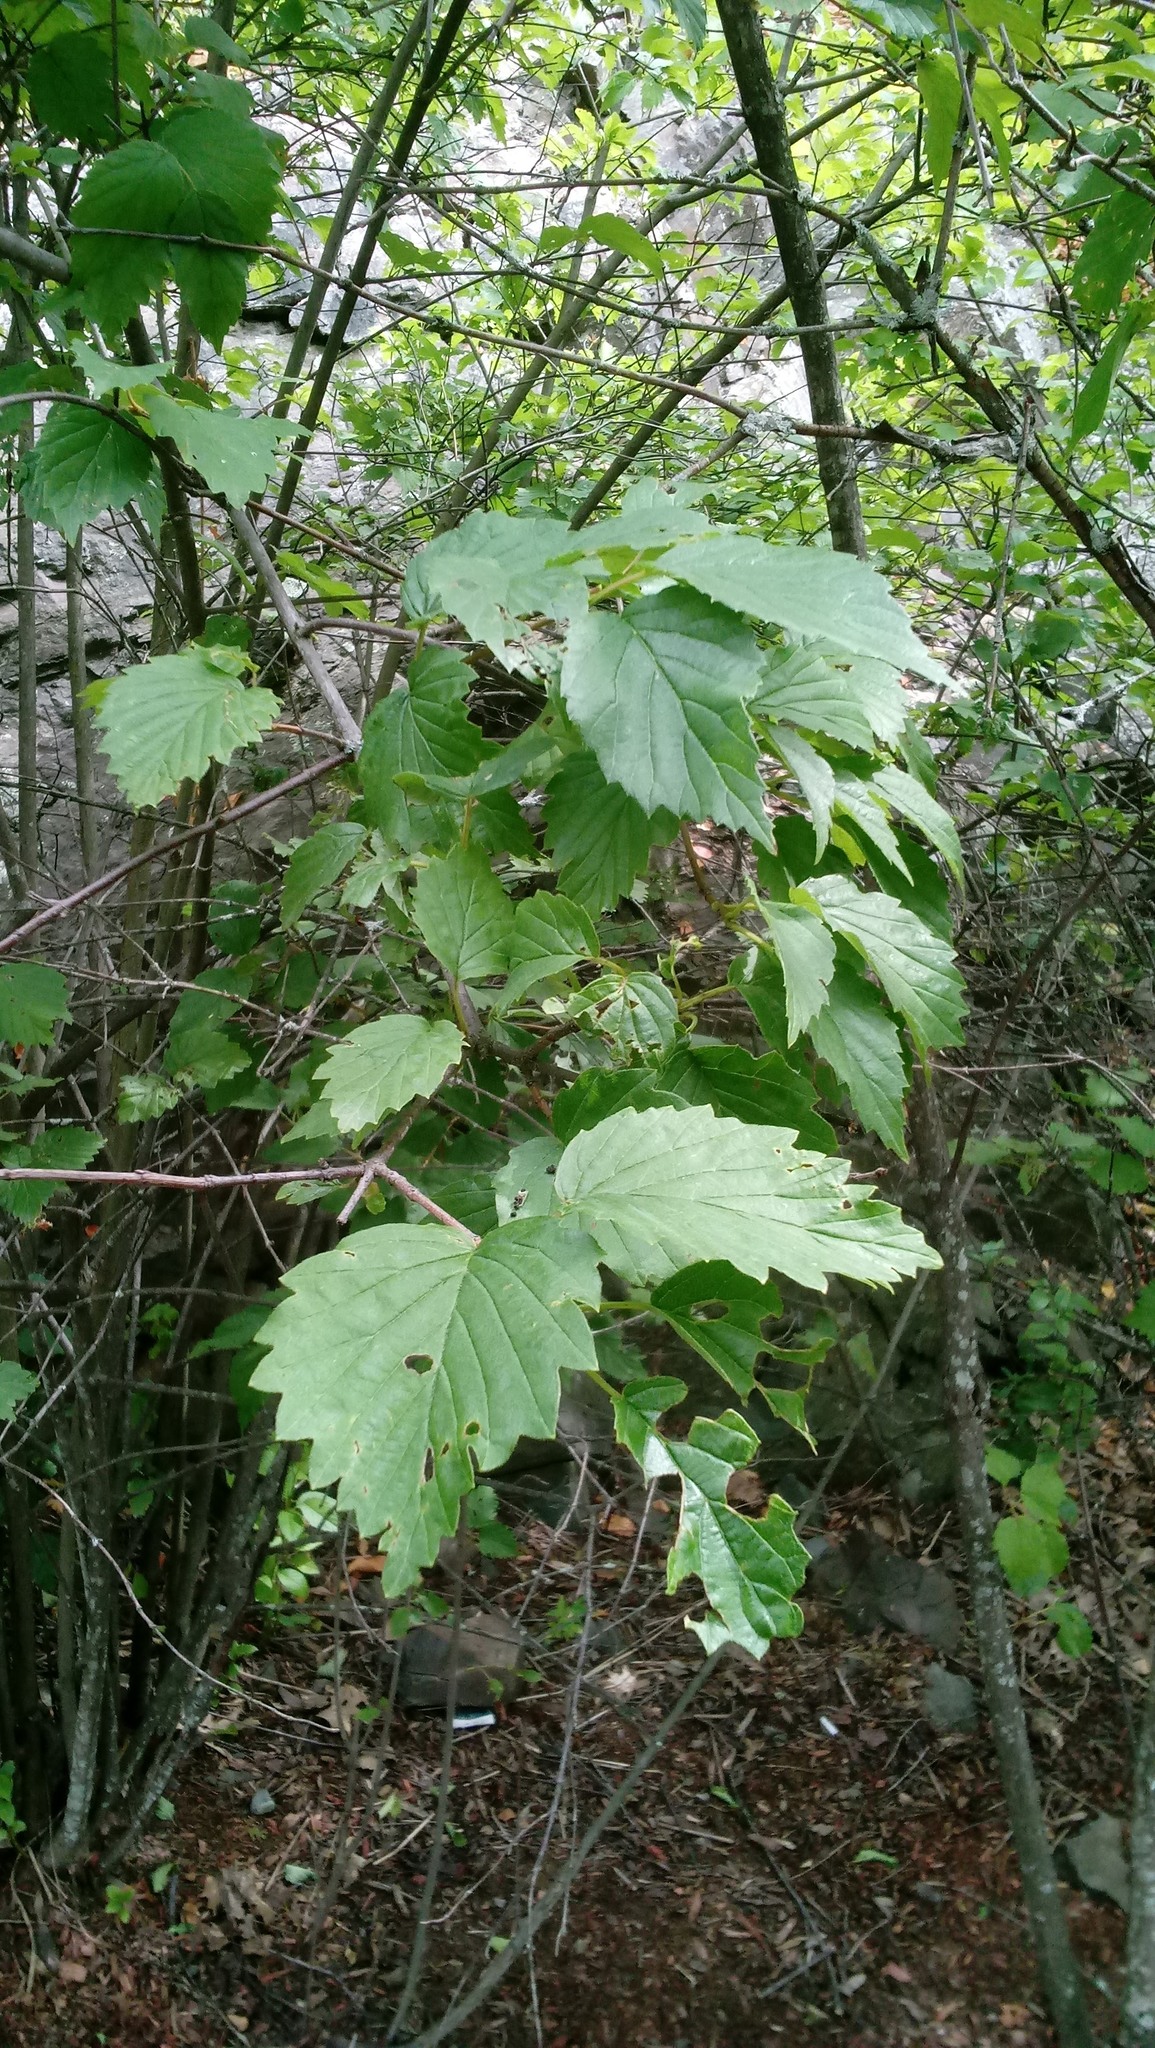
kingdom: Plantae
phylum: Tracheophyta
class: Magnoliopsida
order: Dipsacales
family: Viburnaceae
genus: Viburnum
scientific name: Viburnum dentatum
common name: Arrow-wood
